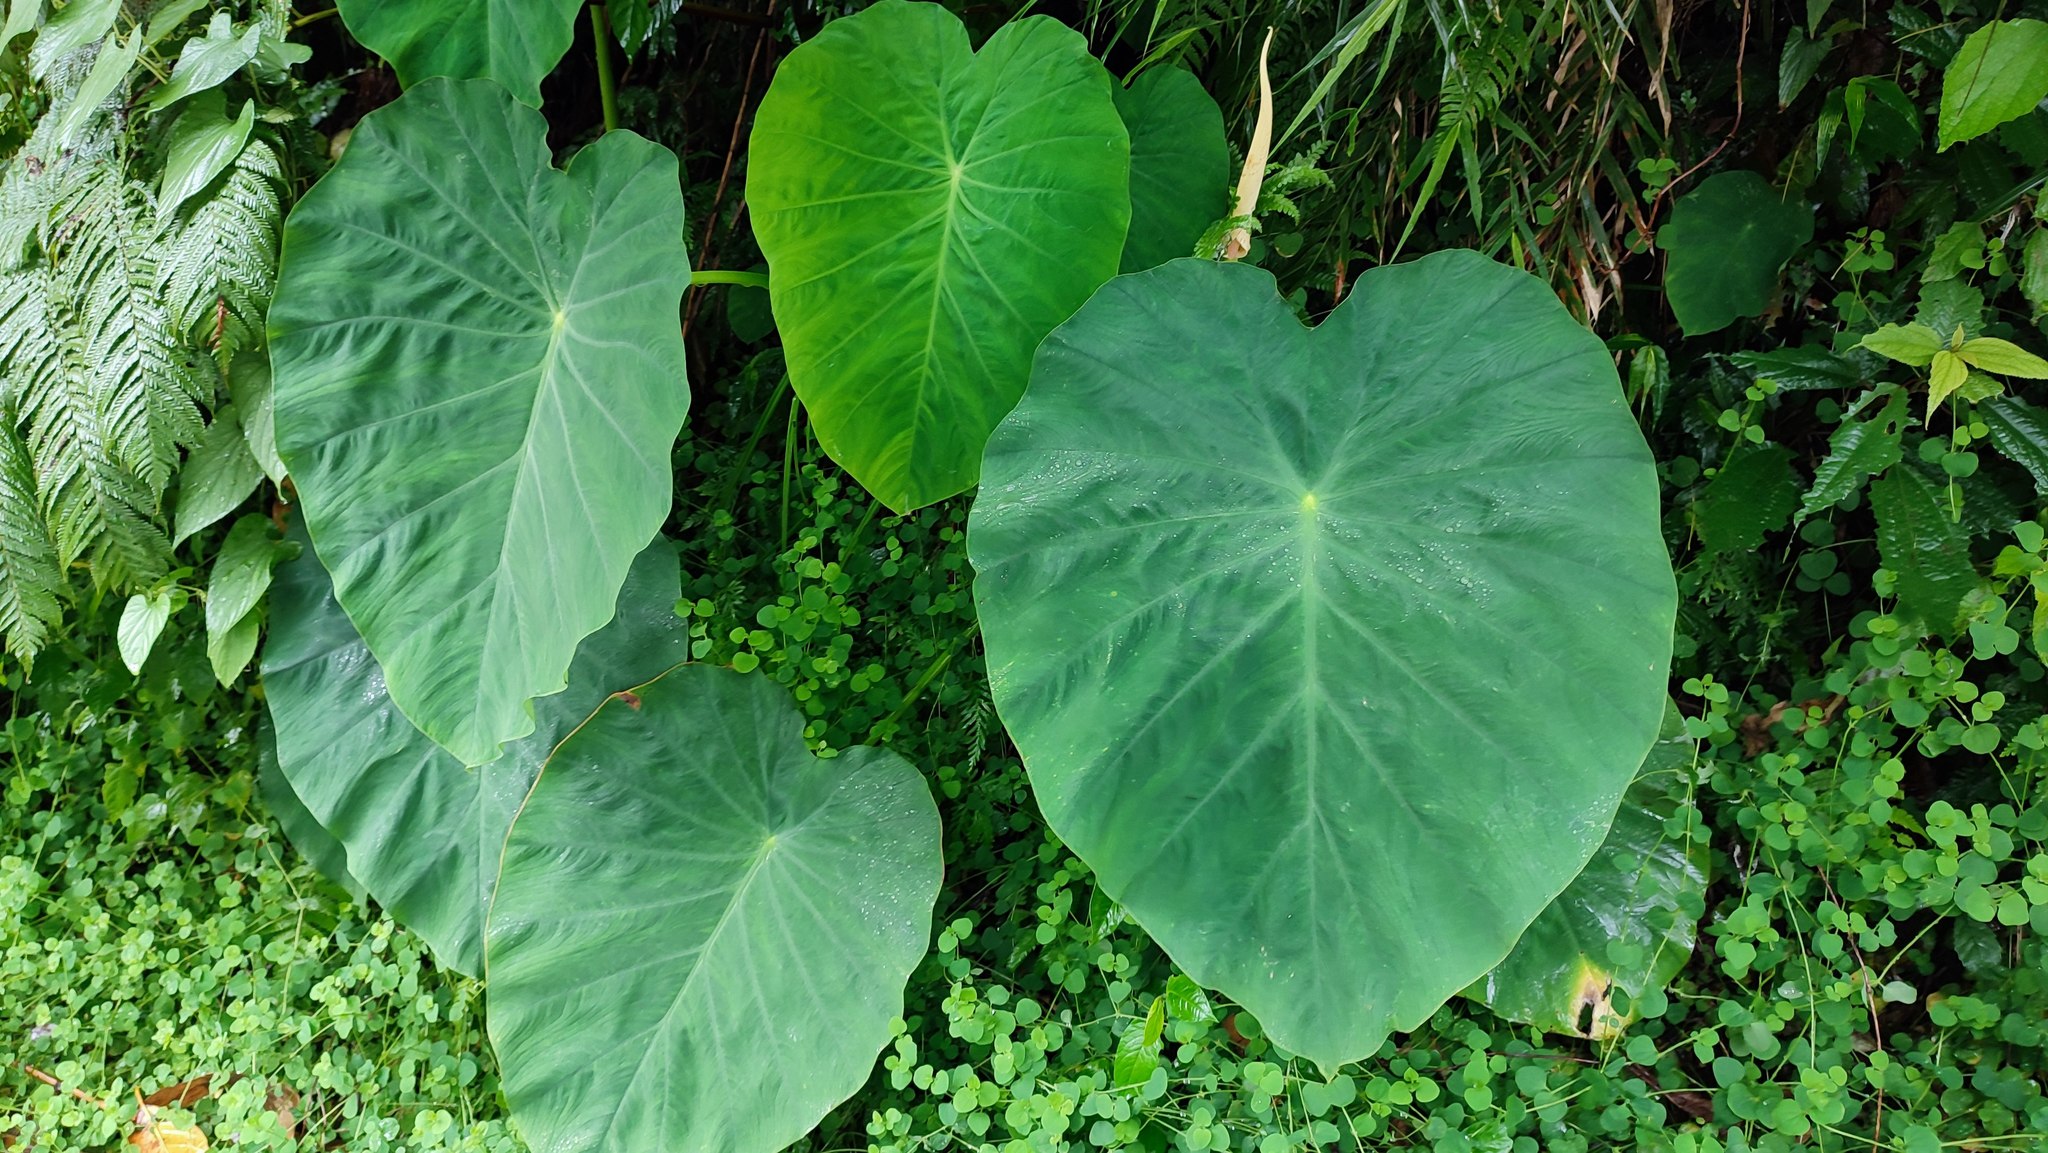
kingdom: Plantae
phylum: Tracheophyta
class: Liliopsida
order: Alismatales
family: Araceae
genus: Colocasia
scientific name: Colocasia esculenta
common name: Taro
